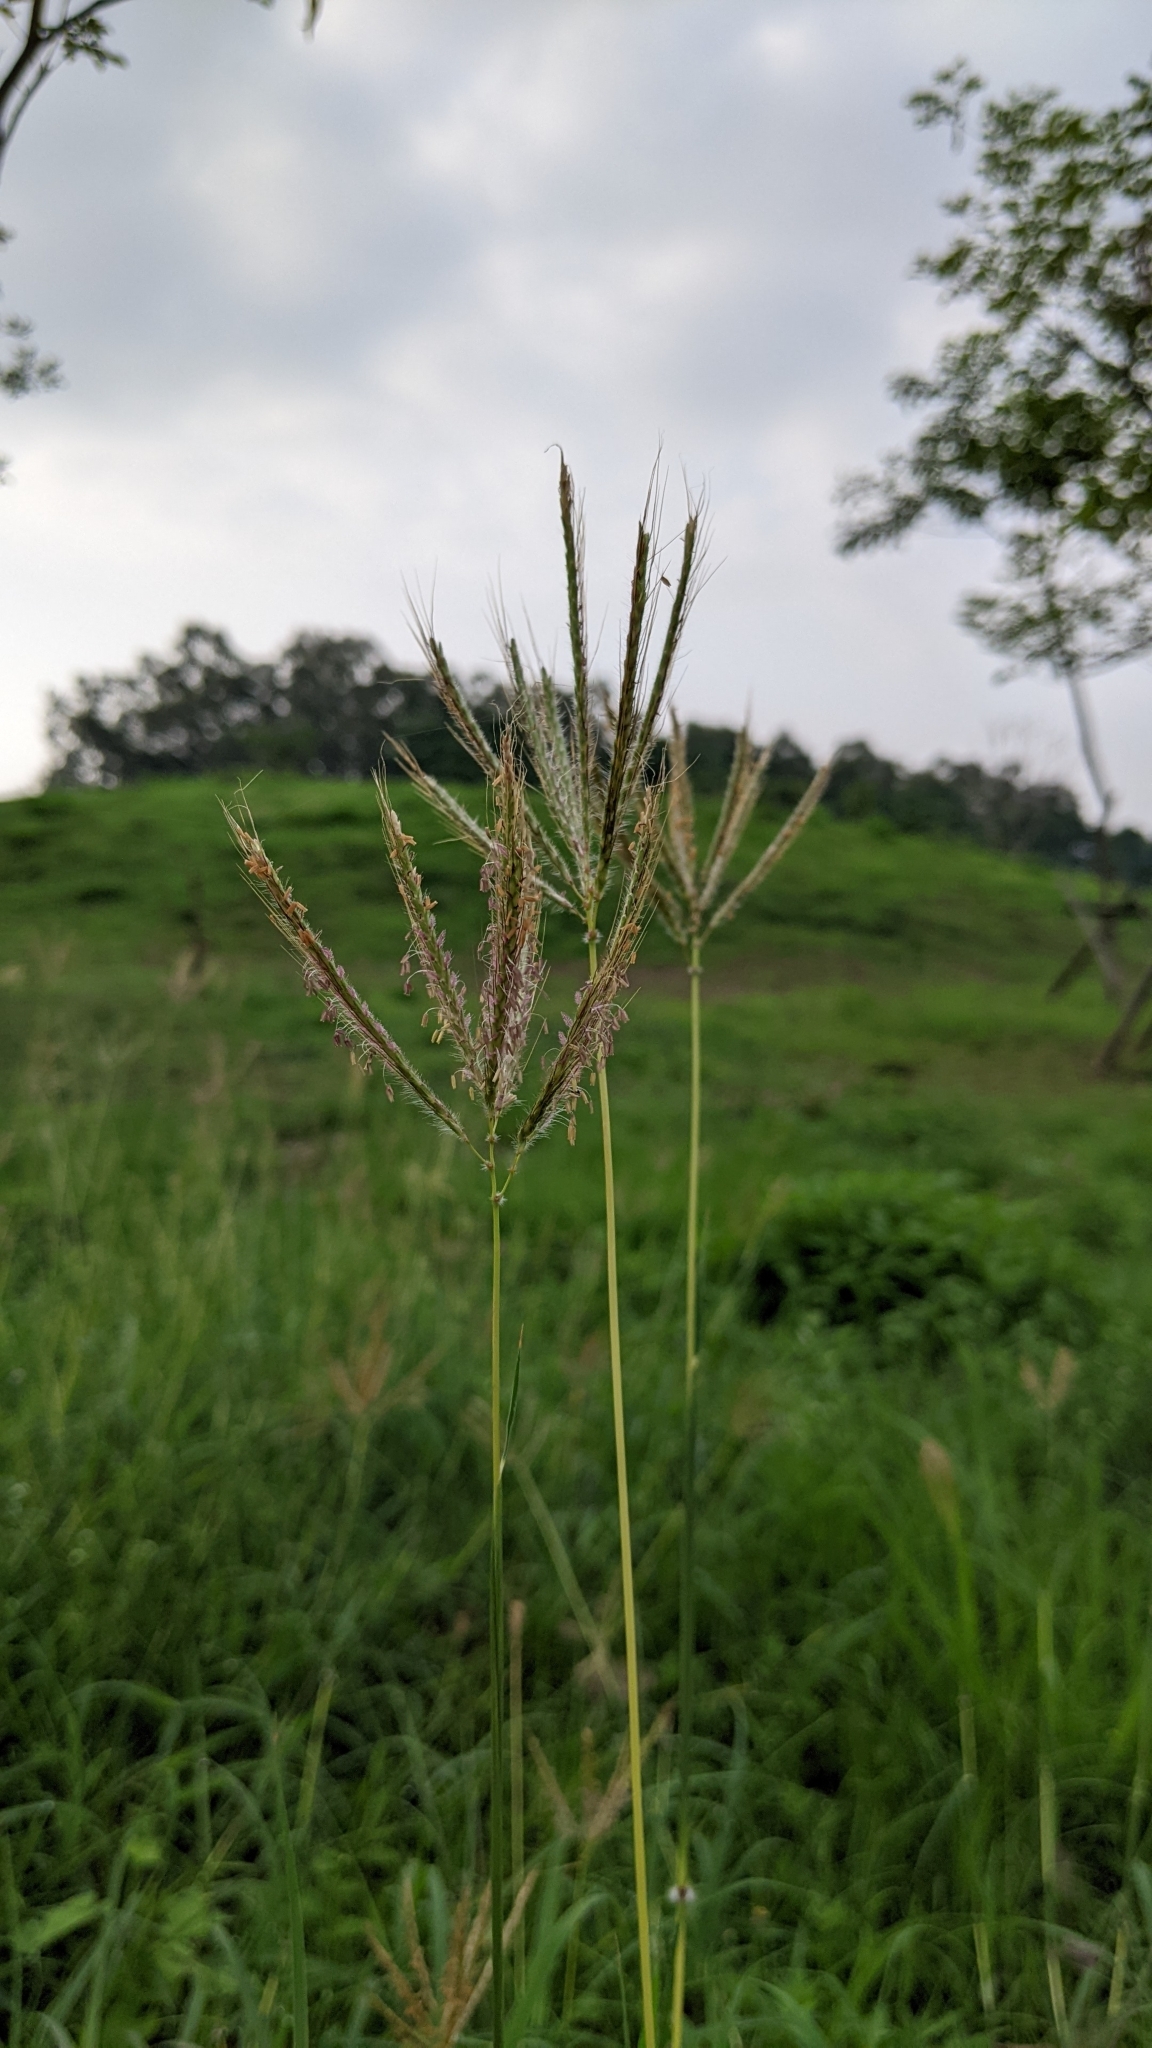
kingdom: Plantae
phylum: Tracheophyta
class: Liliopsida
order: Poales
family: Poaceae
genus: Dichanthium
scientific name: Dichanthium annulatum
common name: Kleberg's bluestem
